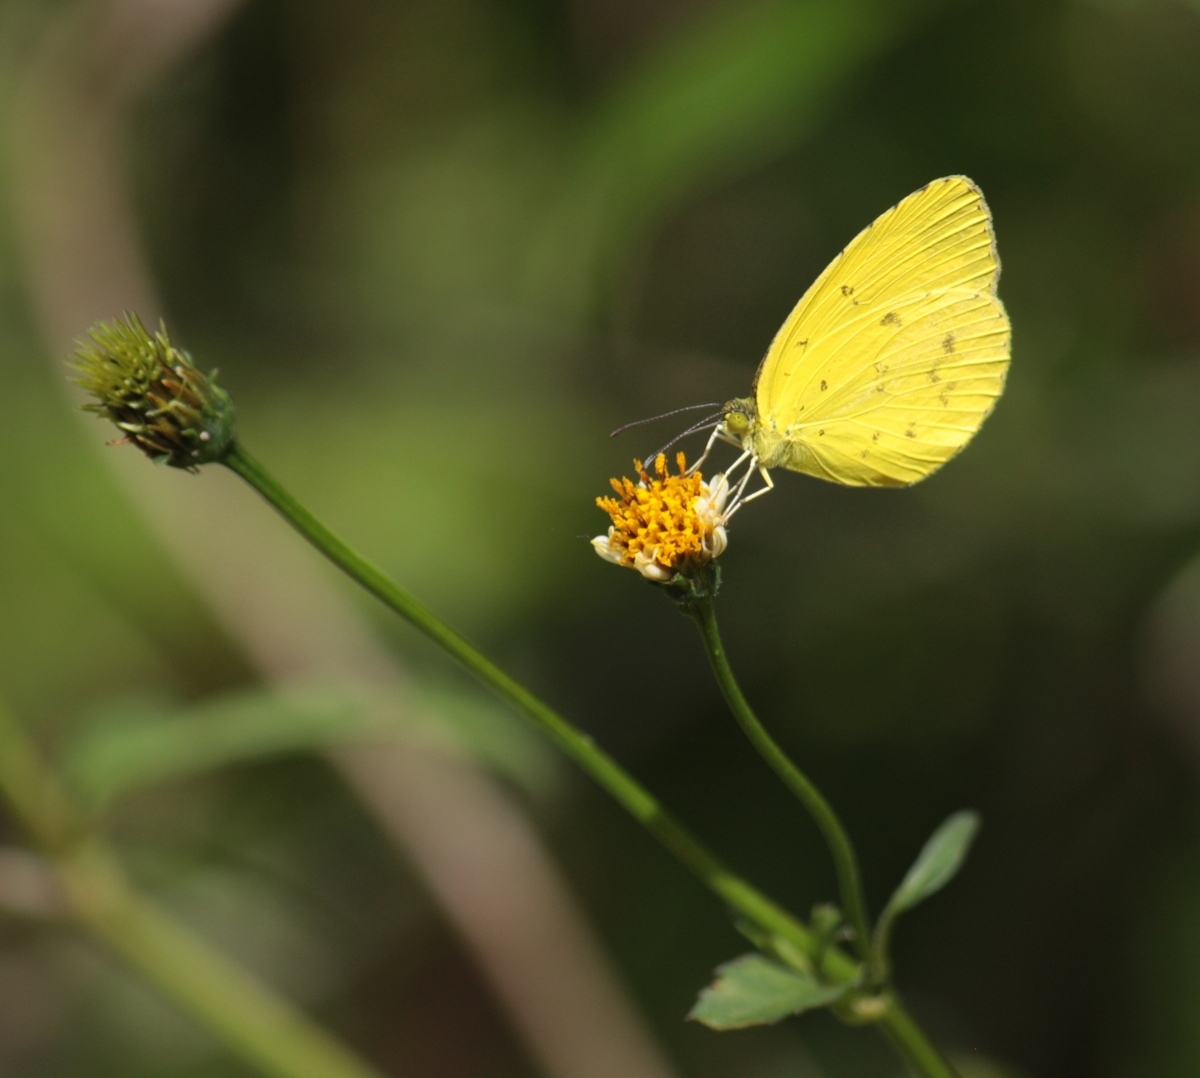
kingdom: Animalia
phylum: Arthropoda
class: Insecta
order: Lepidoptera
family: Pieridae
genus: Eurema
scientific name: Eurema hecabe
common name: Pale grass yellow
